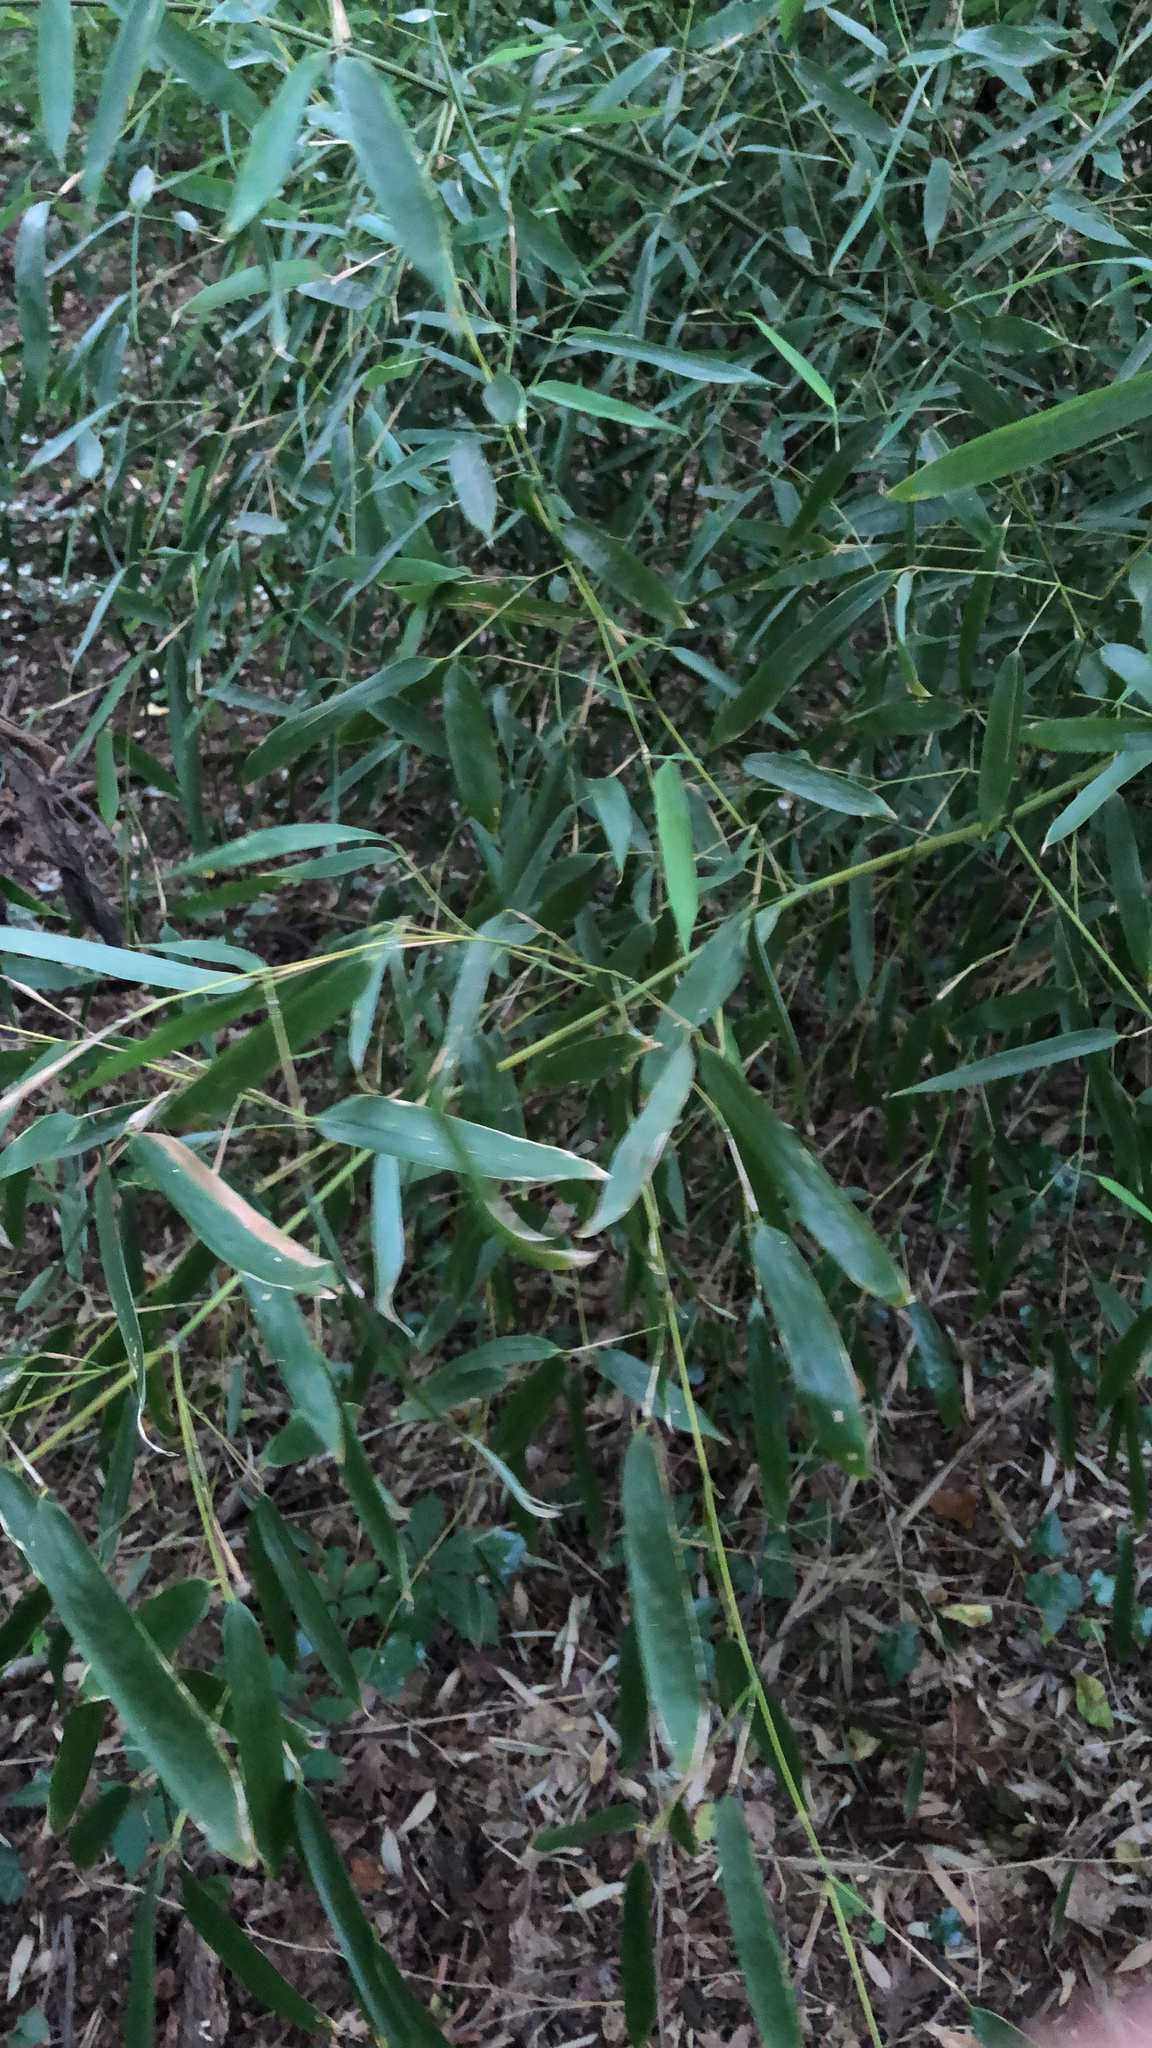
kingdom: Plantae
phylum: Tracheophyta
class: Liliopsida
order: Poales
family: Poaceae
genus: Phyllostachys
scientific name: Phyllostachys aureosulcata
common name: Yellow groove bamboo
